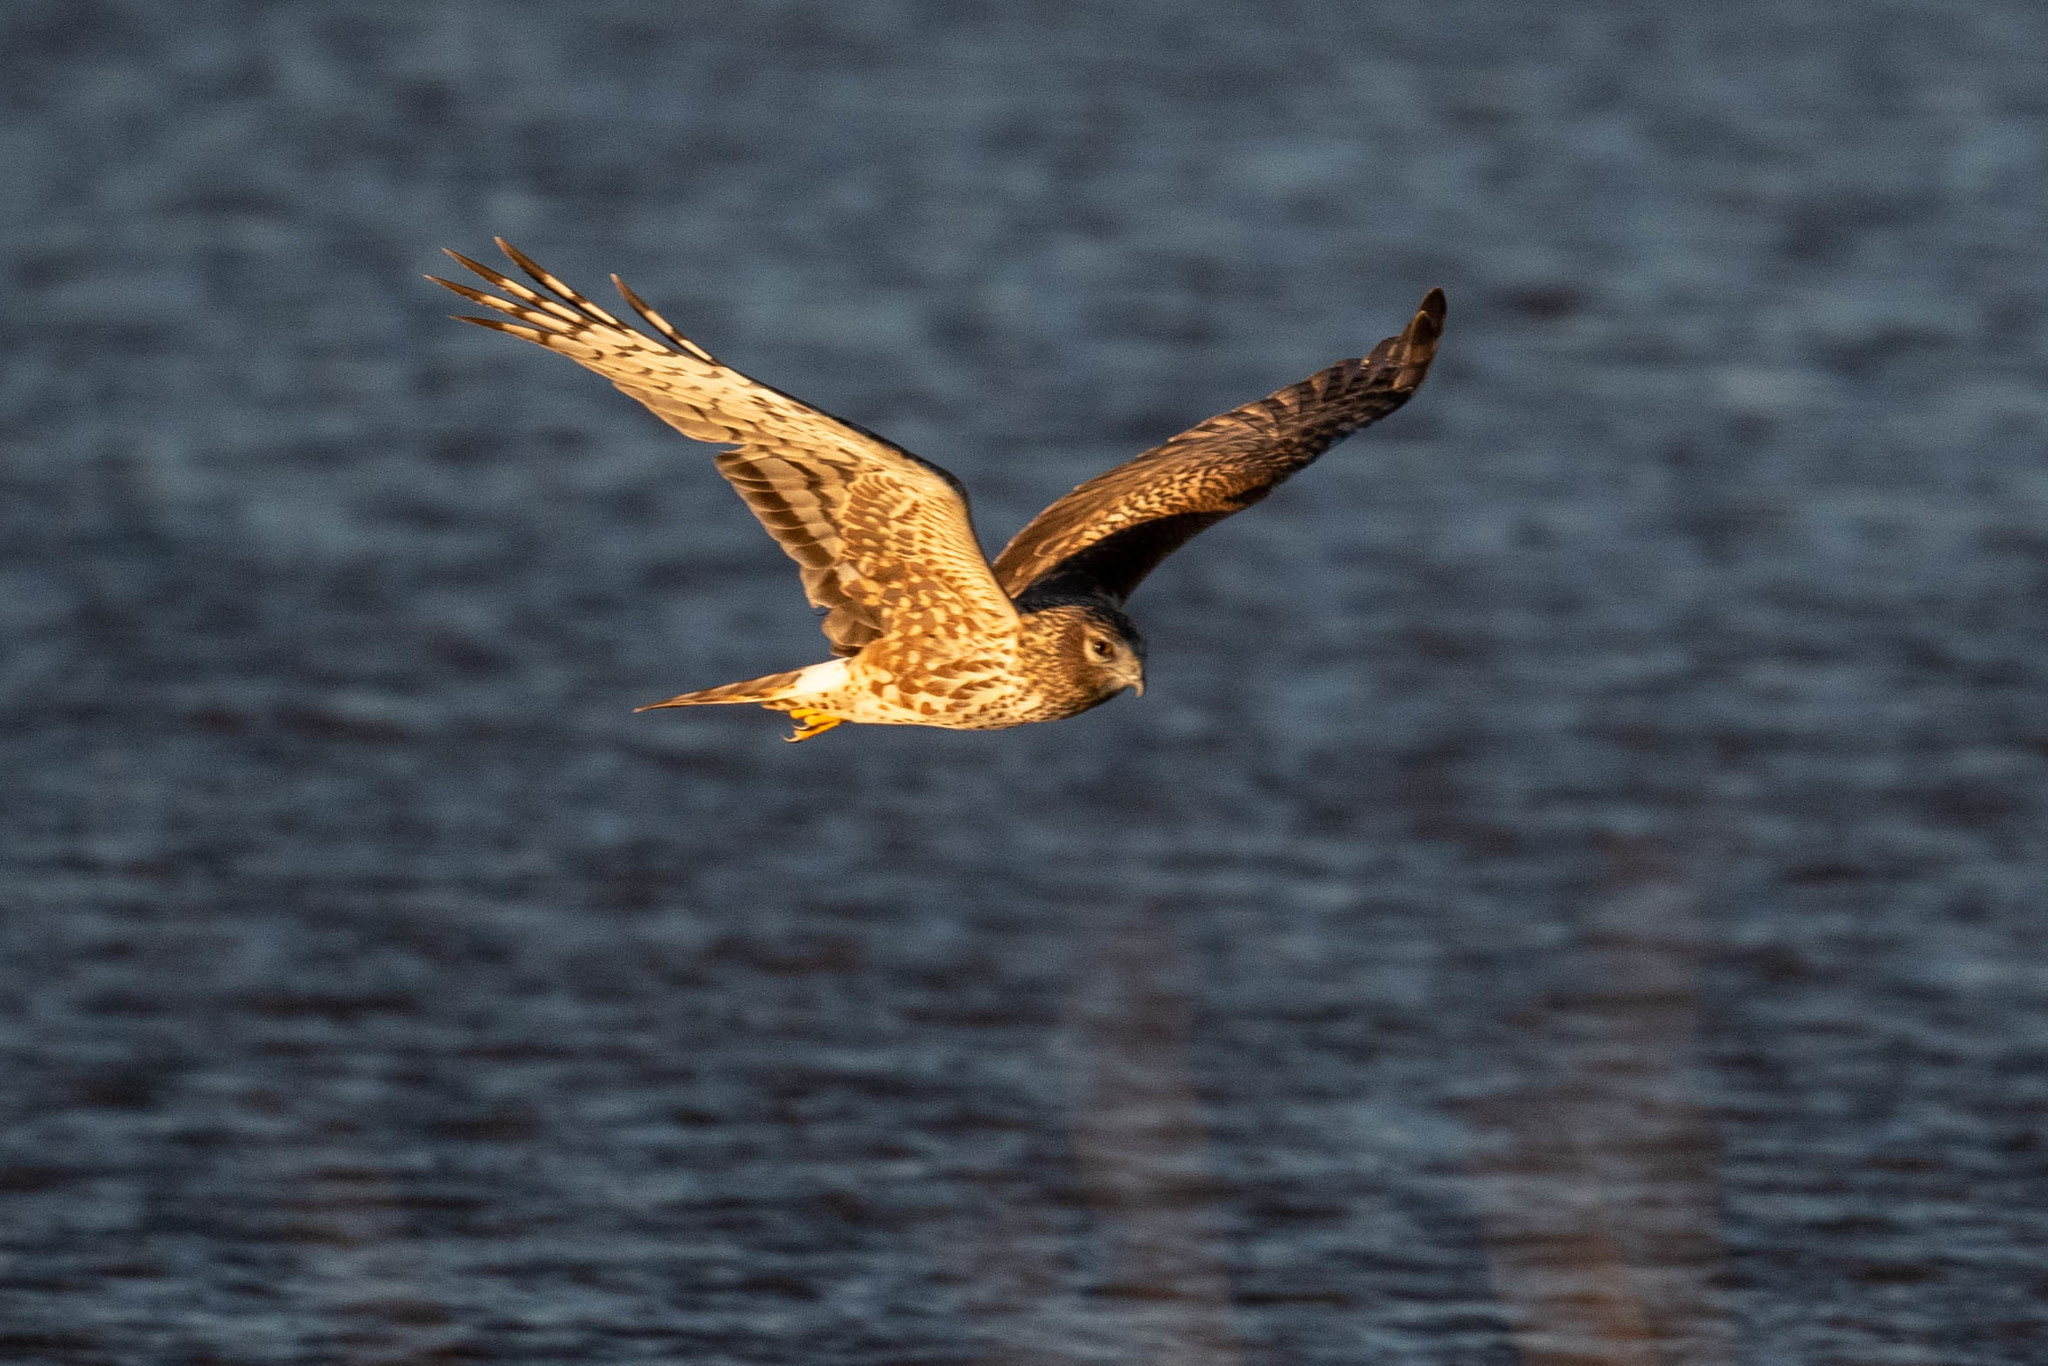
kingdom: Animalia
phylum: Chordata
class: Aves
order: Accipitriformes
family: Accipitridae
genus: Circus
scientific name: Circus cyaneus
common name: Hen harrier
